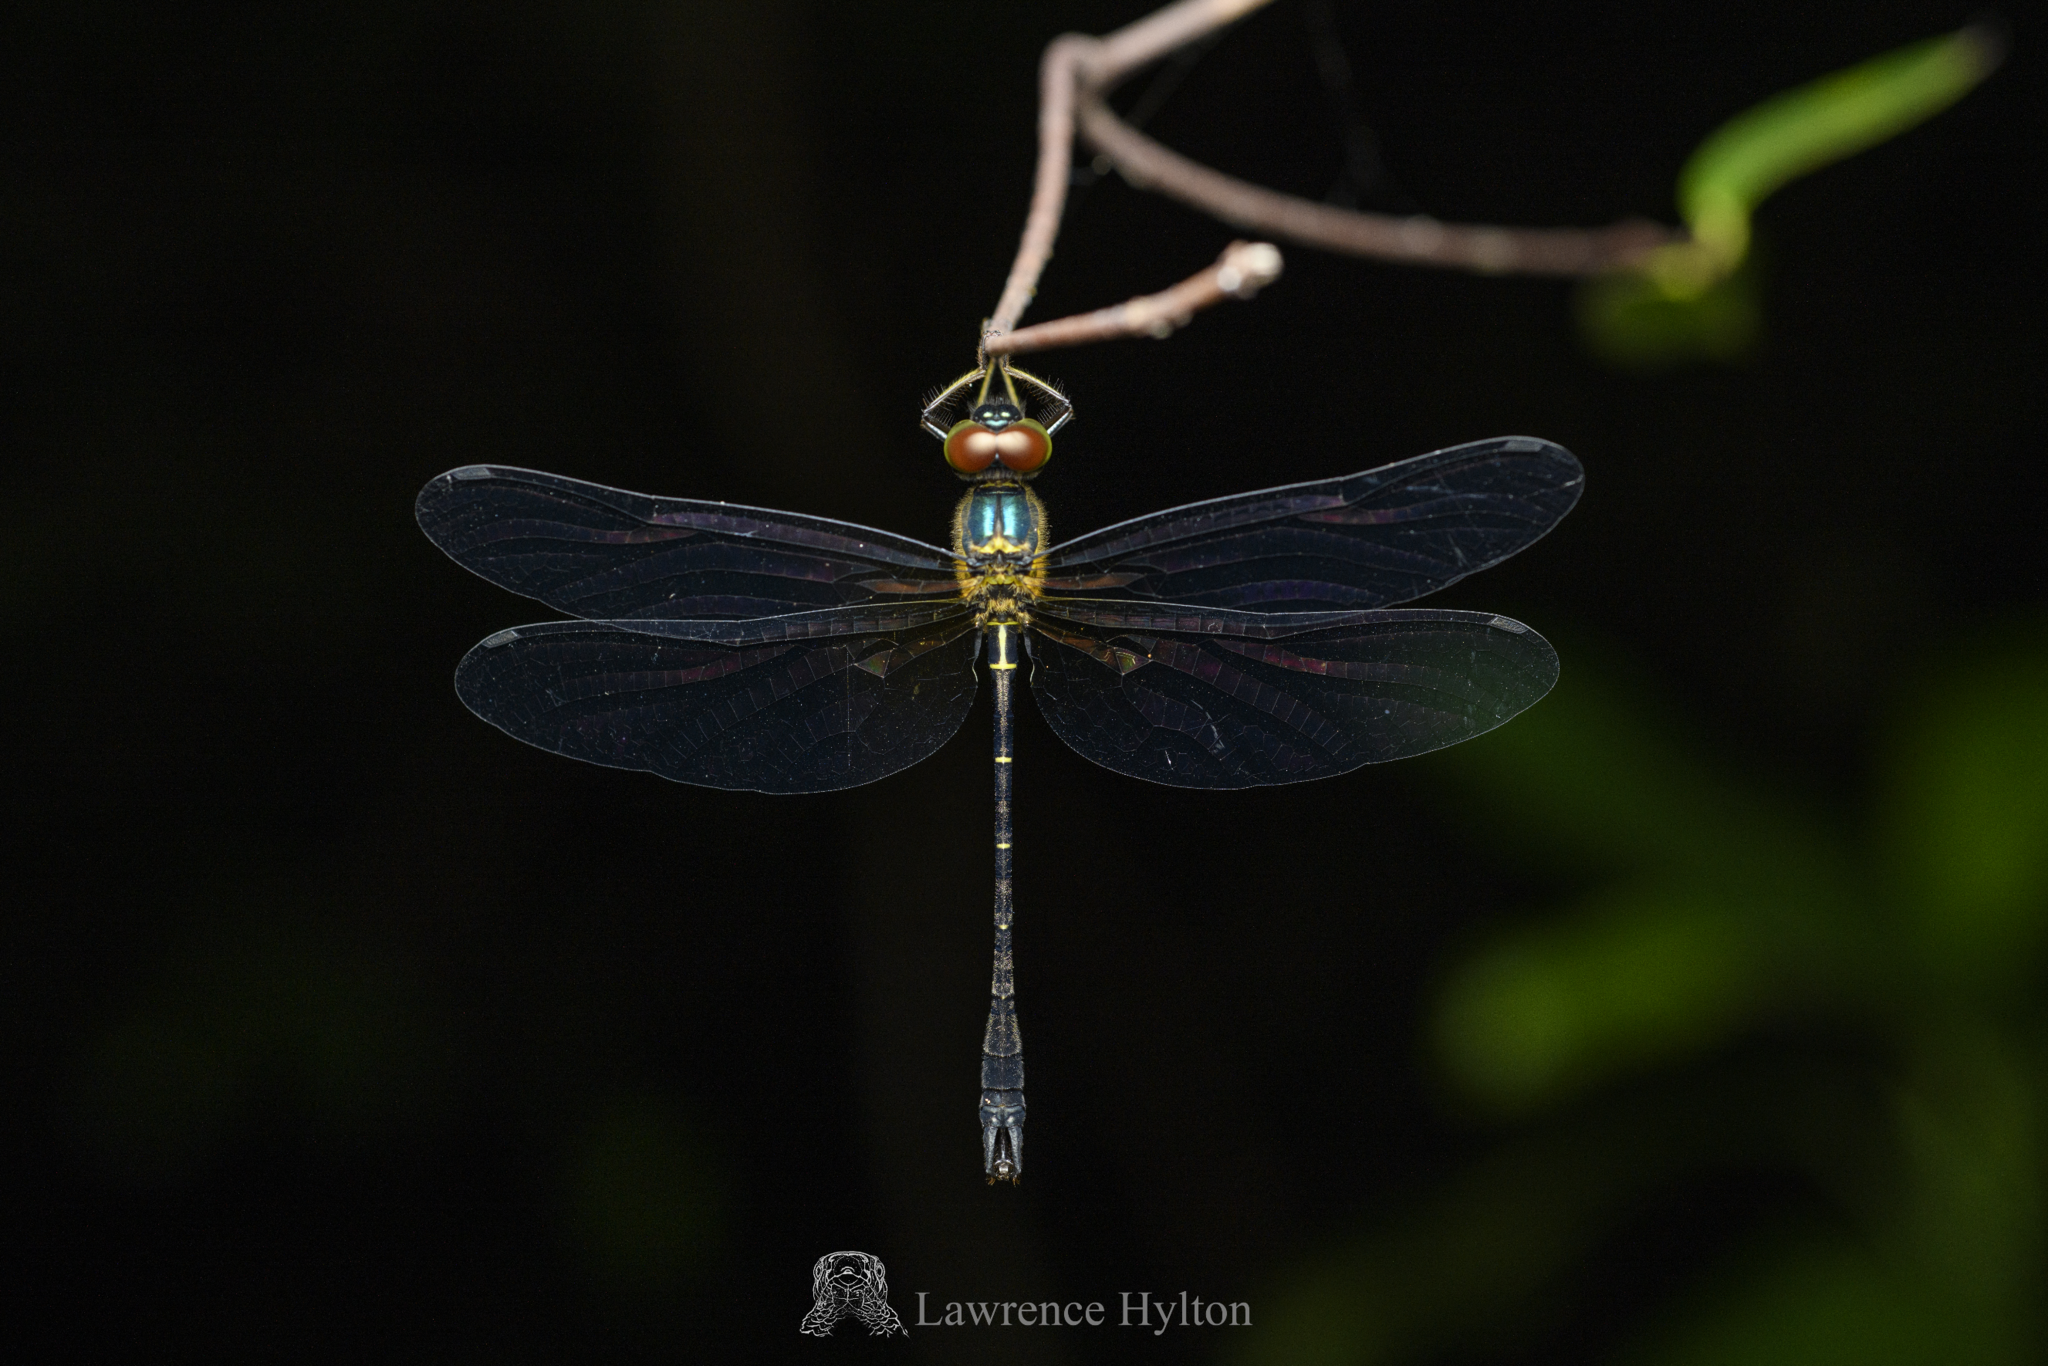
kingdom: Animalia
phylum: Arthropoda
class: Insecta
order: Odonata
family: Synthemistidae
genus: Idionyx
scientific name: Idionyx victor
